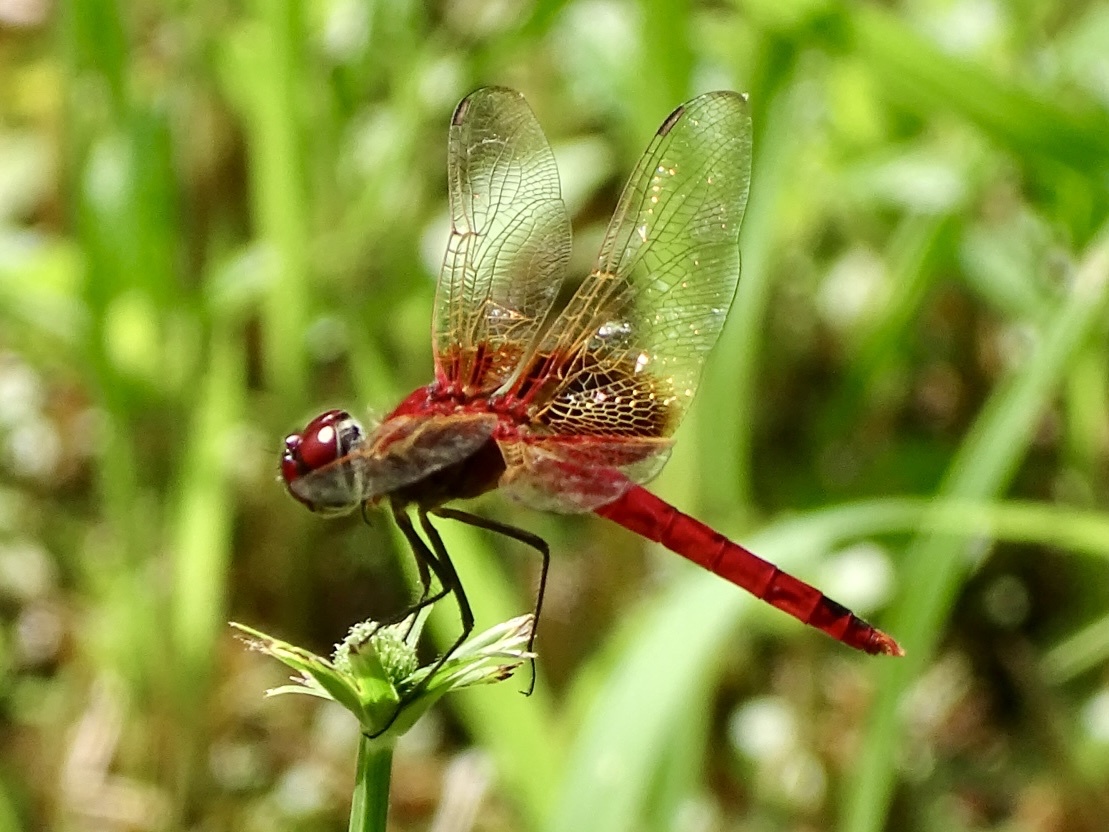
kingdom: Animalia
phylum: Arthropoda
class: Insecta
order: Odonata
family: Libellulidae
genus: Urothemis
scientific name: Urothemis signata
